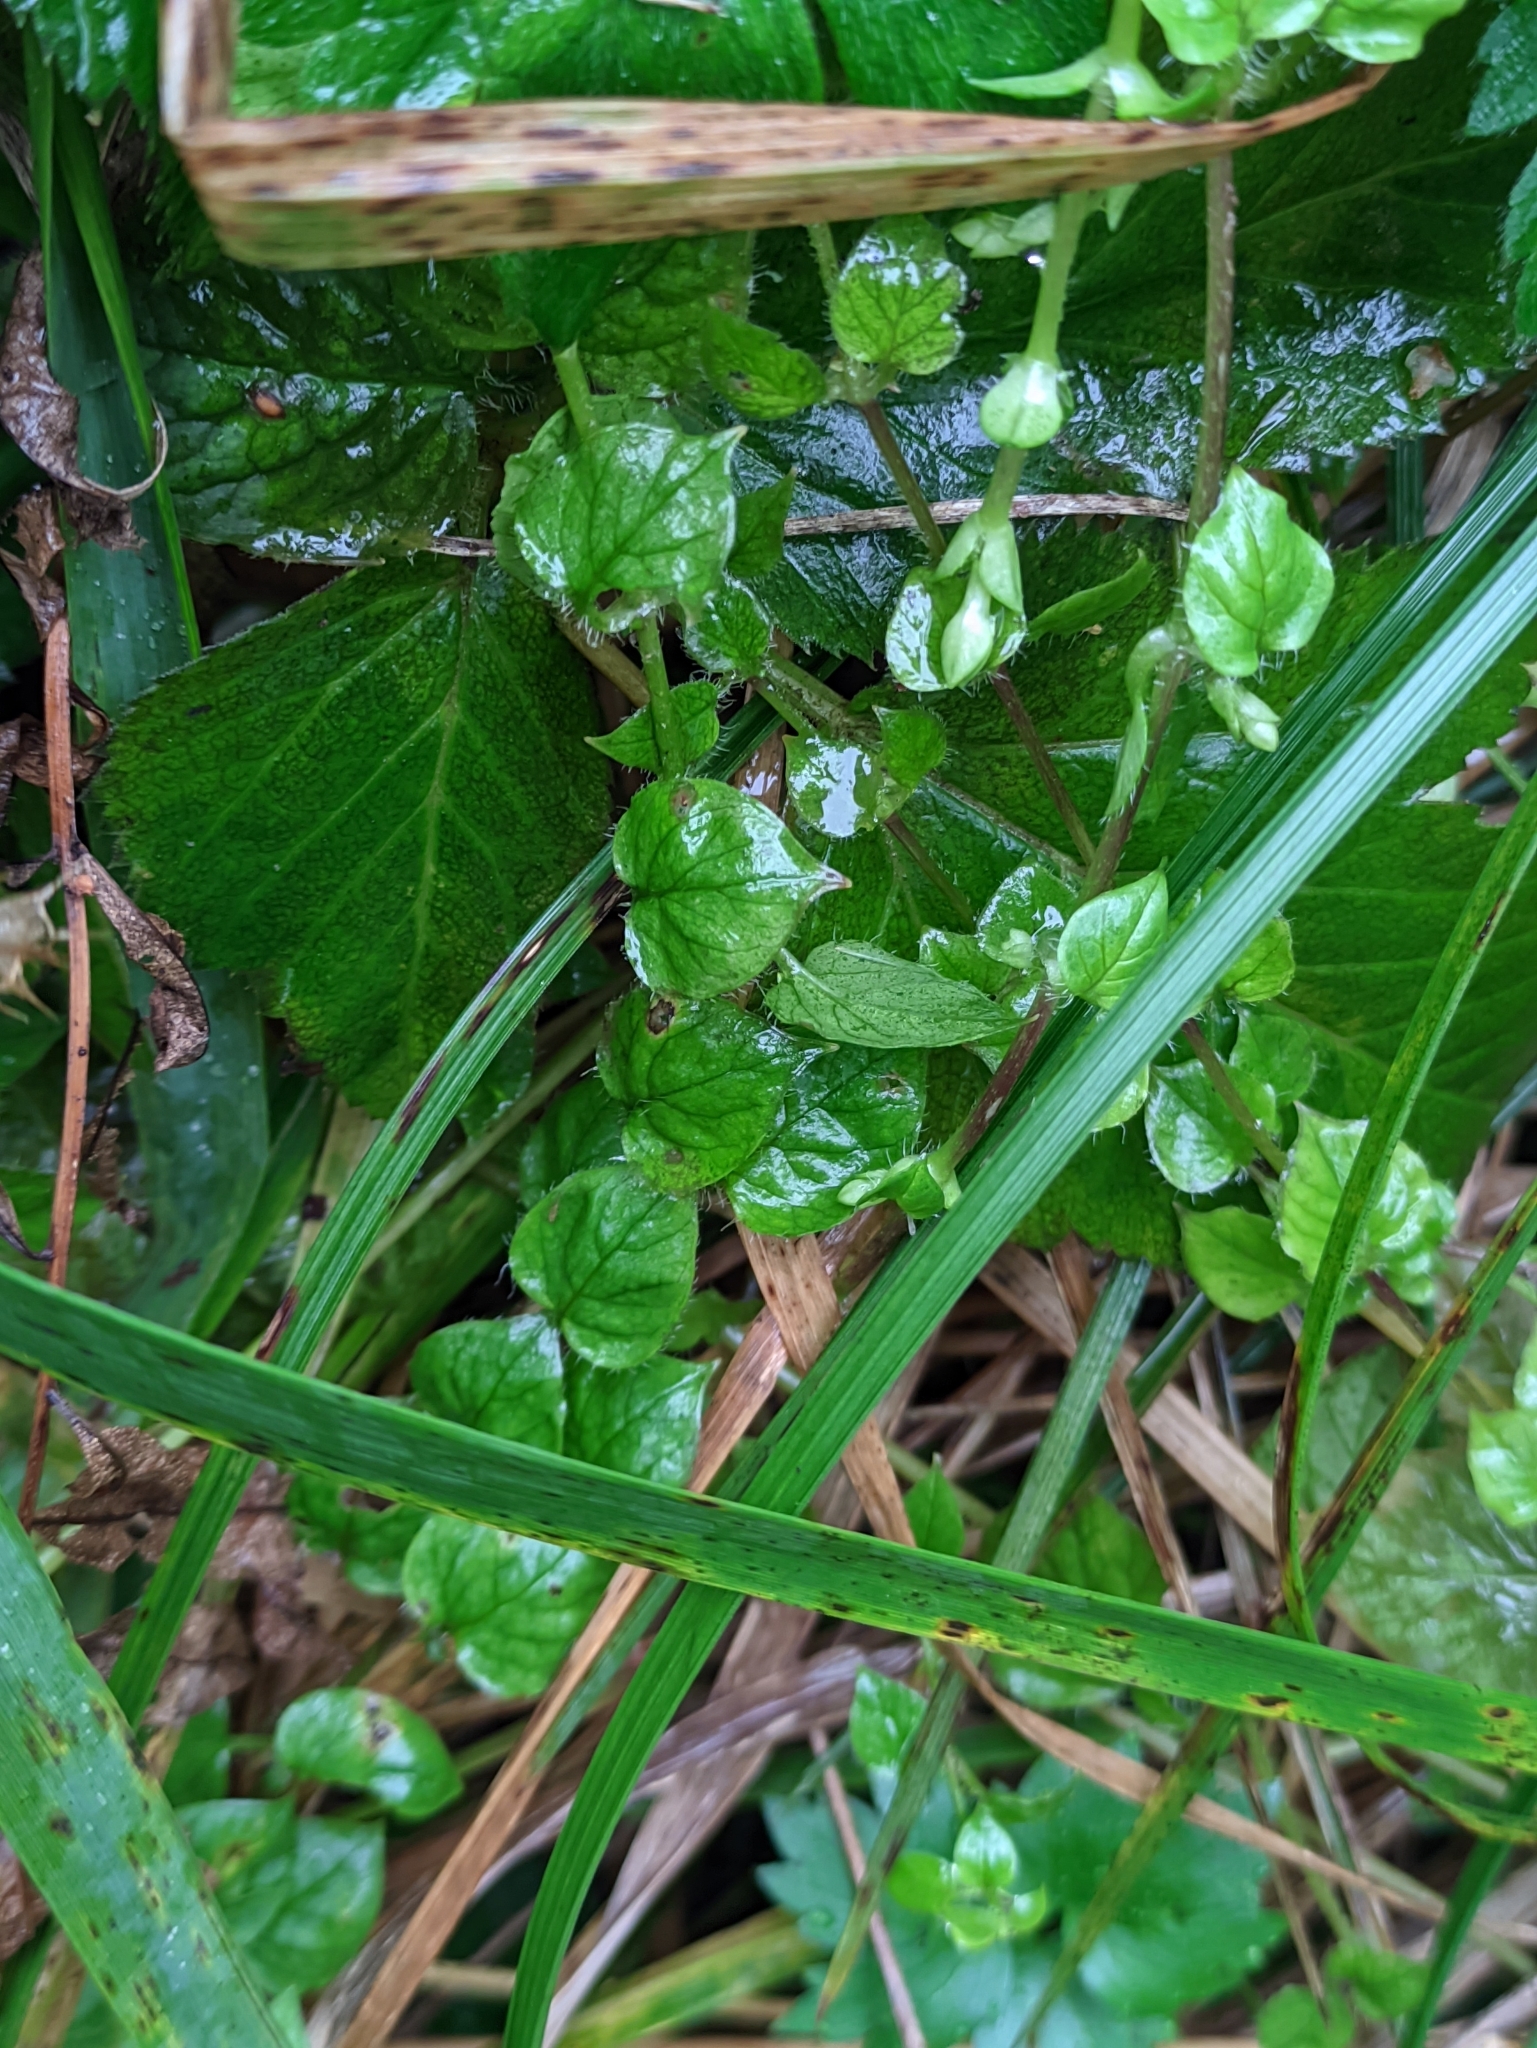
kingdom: Plantae
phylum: Tracheophyta
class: Magnoliopsida
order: Caryophyllales
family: Caryophyllaceae
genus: Stellaria
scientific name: Stellaria nemorum
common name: Wood stitchwort
